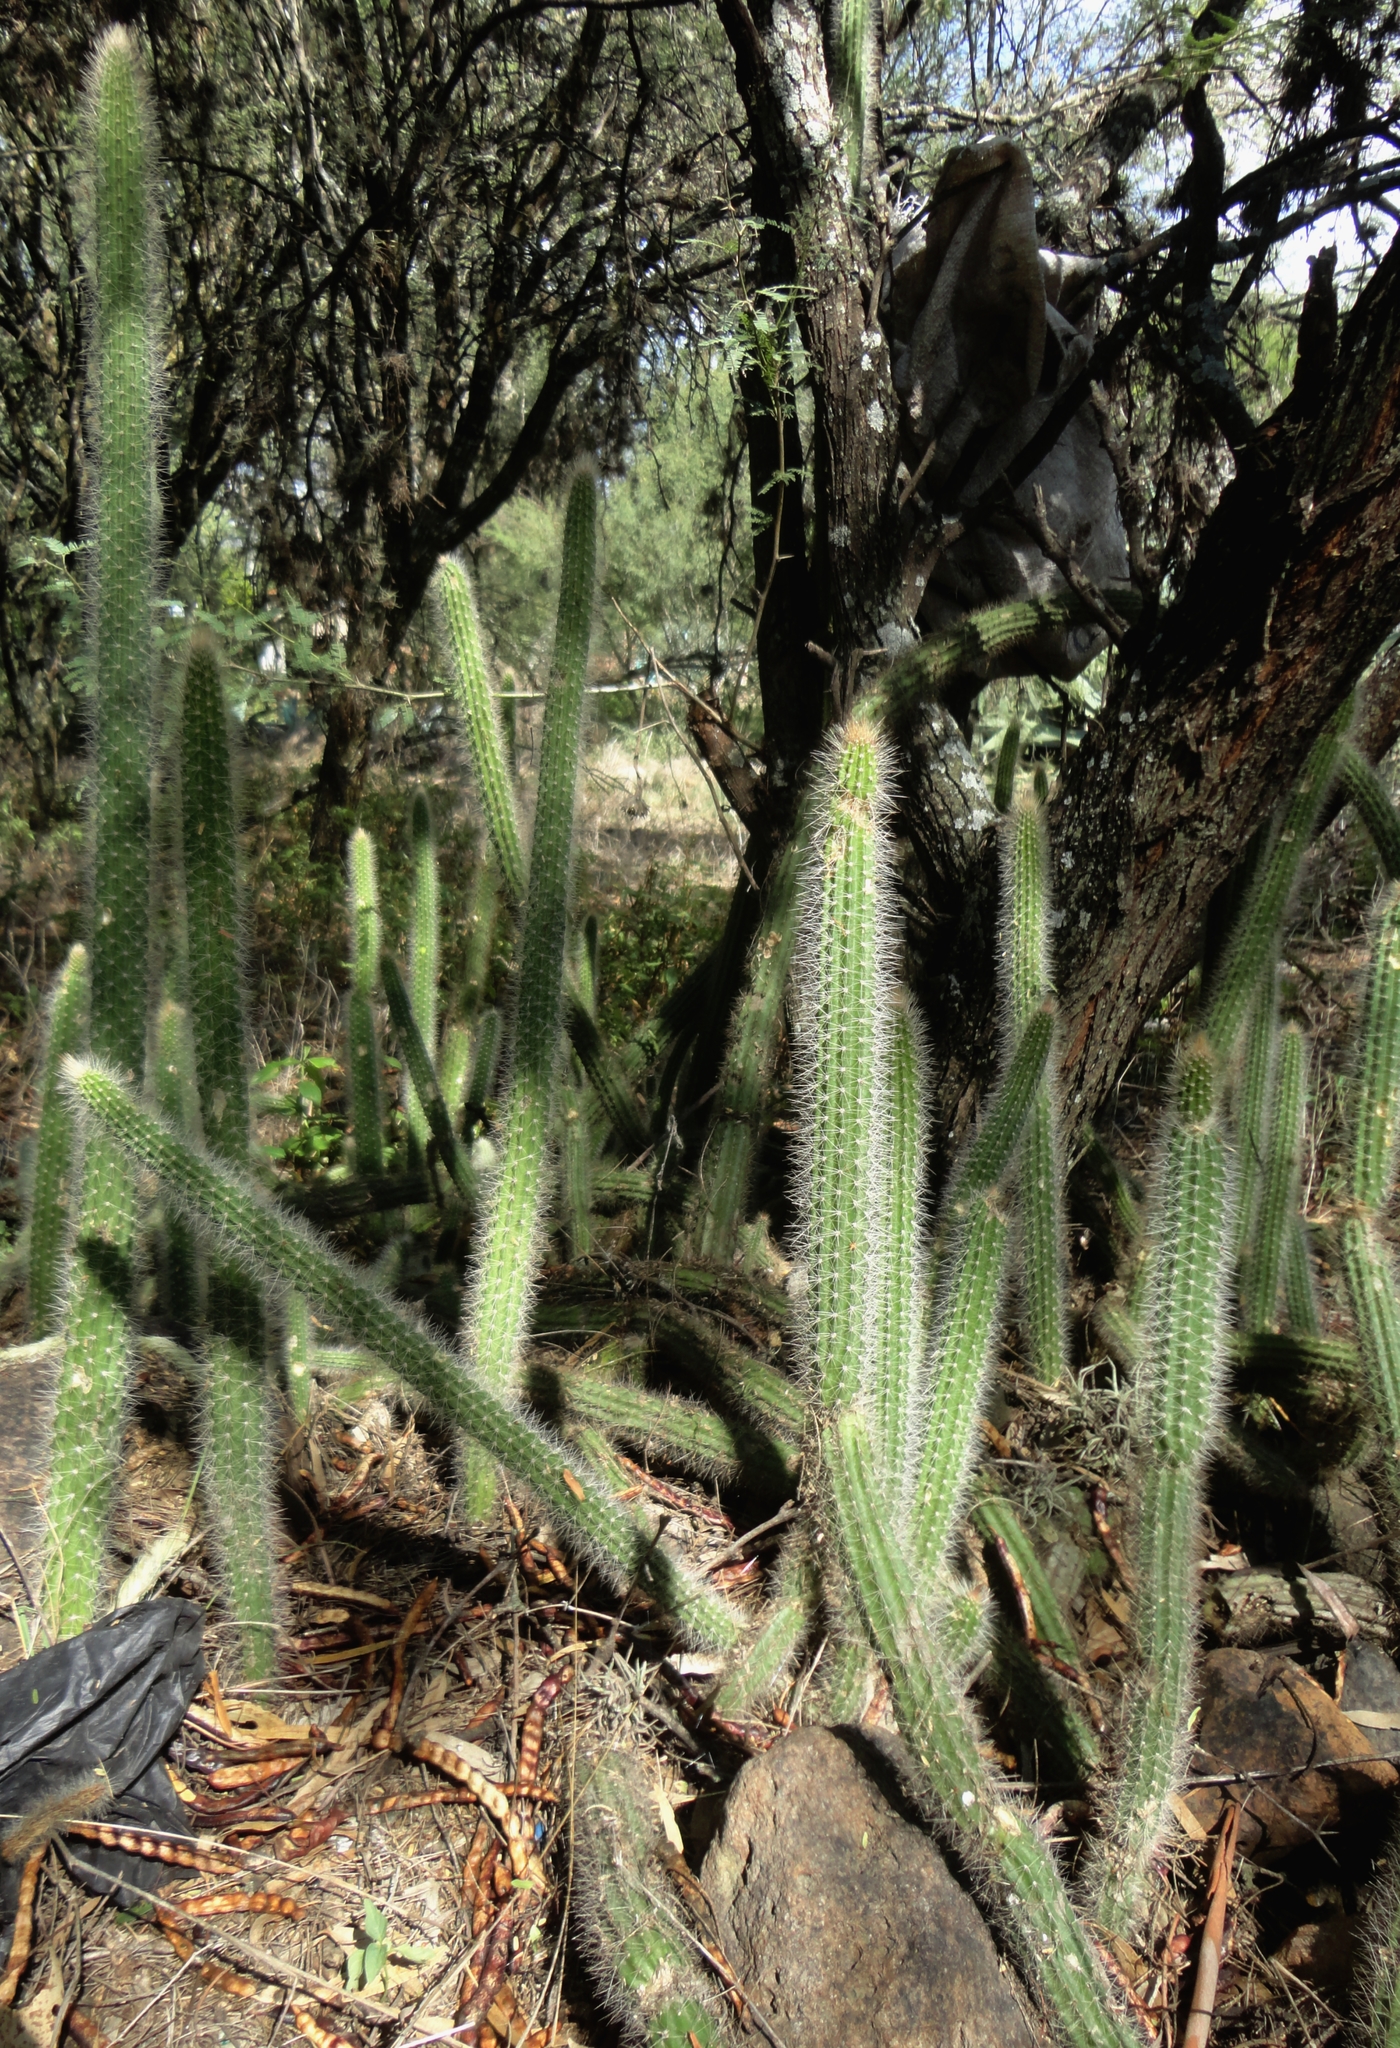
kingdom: Plantae
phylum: Tracheophyta
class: Magnoliopsida
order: Caryophyllales
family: Cactaceae
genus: Peniocereus
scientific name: Peniocereus serpentinus
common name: Serpent cactus
